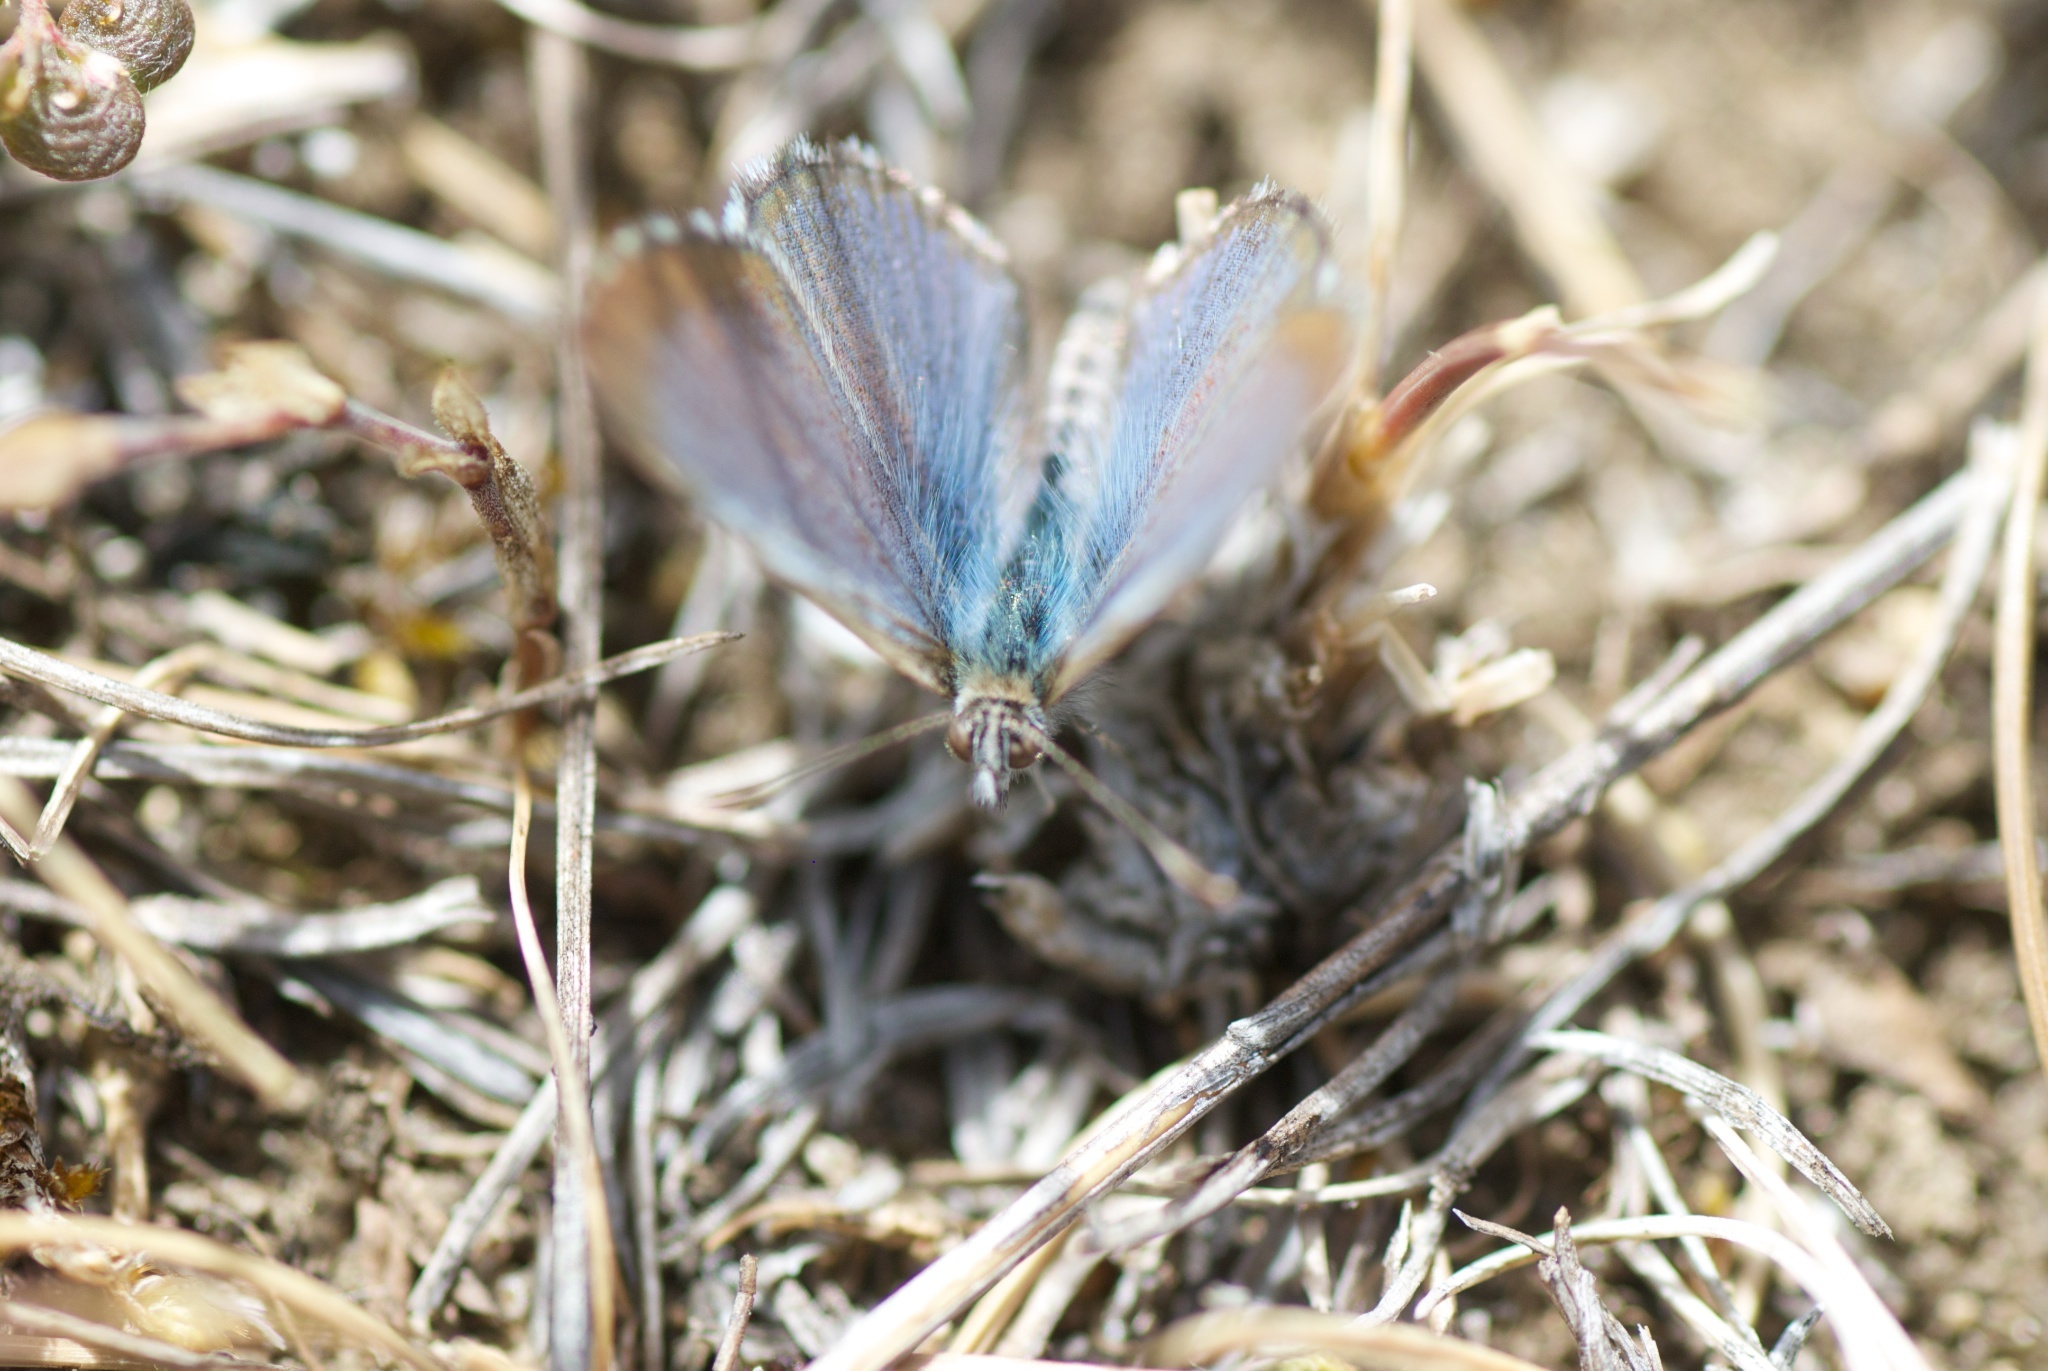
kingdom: Animalia
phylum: Arthropoda
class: Insecta
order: Lepidoptera
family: Lycaenidae
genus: Zizina
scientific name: Zizina oxleyi
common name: Southern blue
